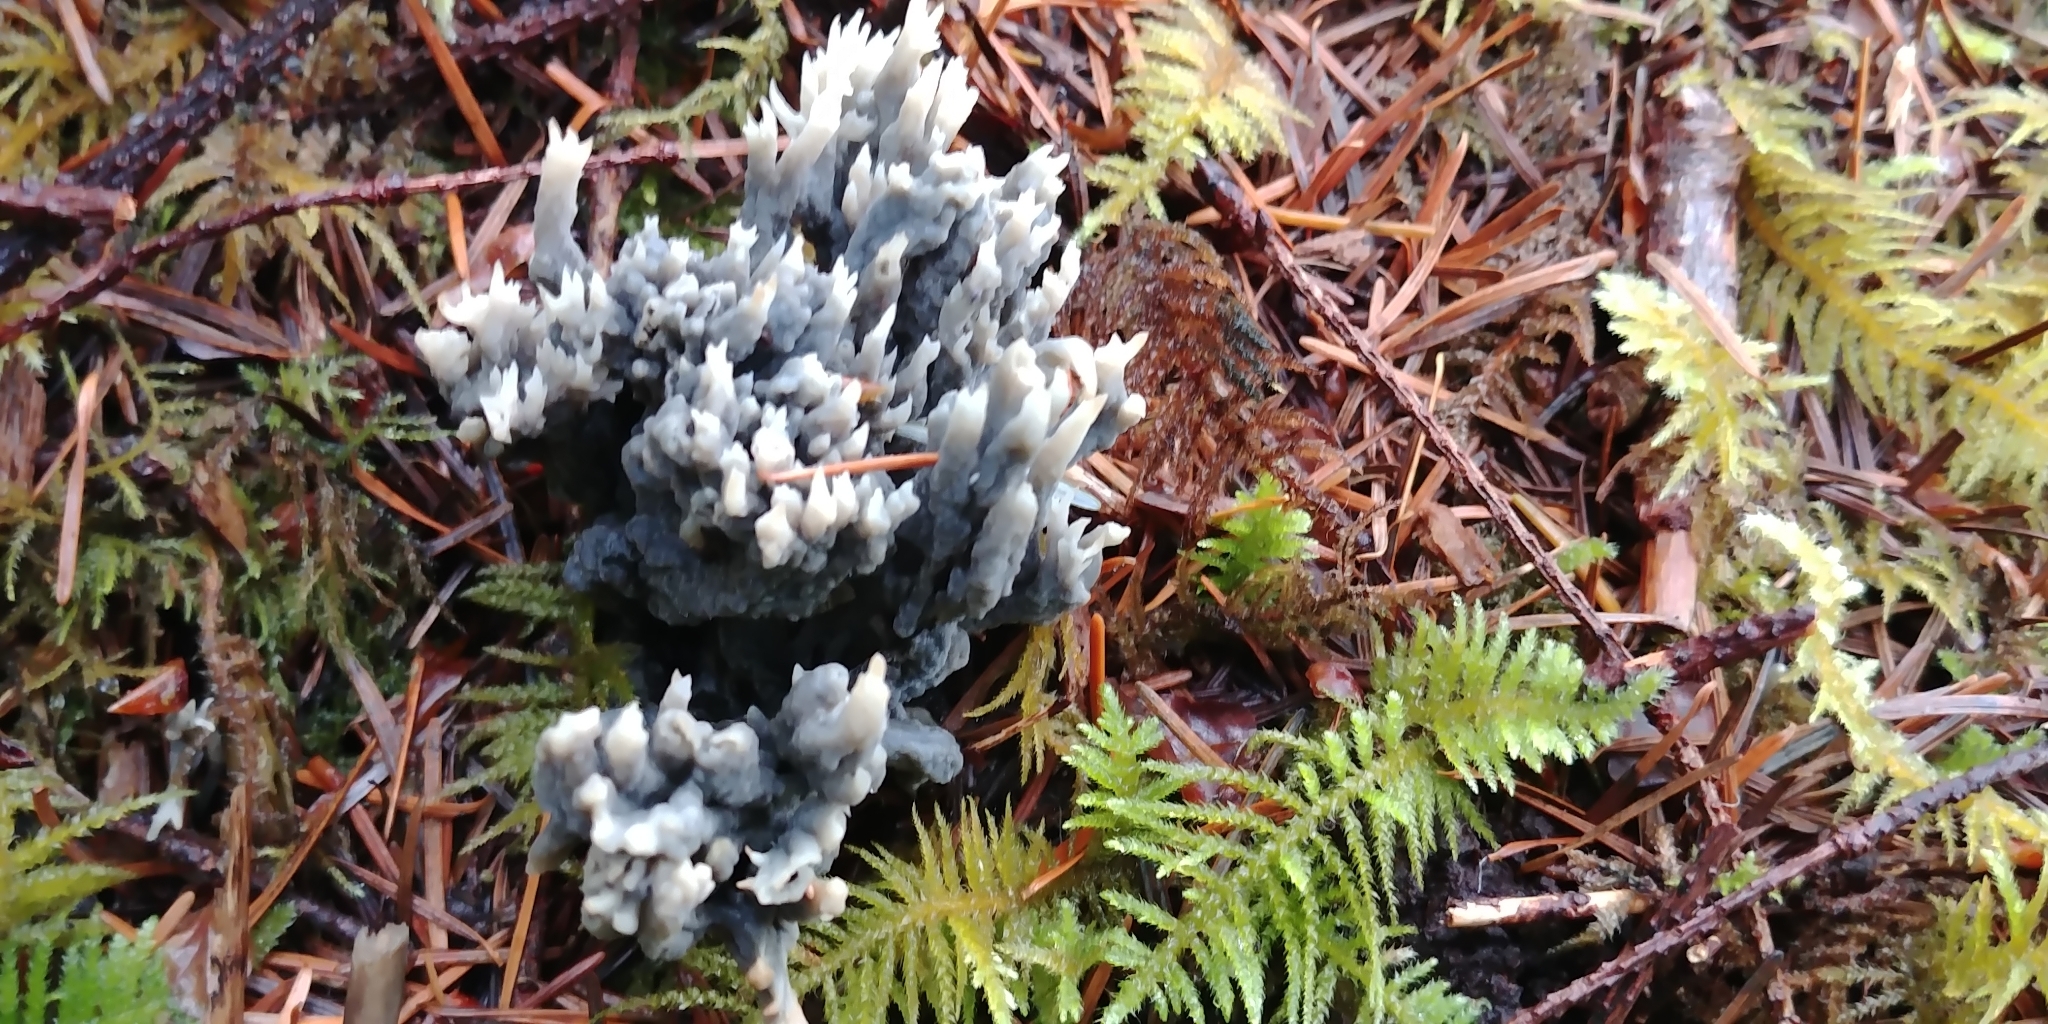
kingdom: Fungi
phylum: Ascomycota
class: Sordariomycetes
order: Sordariales
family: Helminthosphaeriaceae
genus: Helminthosphaeria
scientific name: Helminthosphaeria clavariarum
